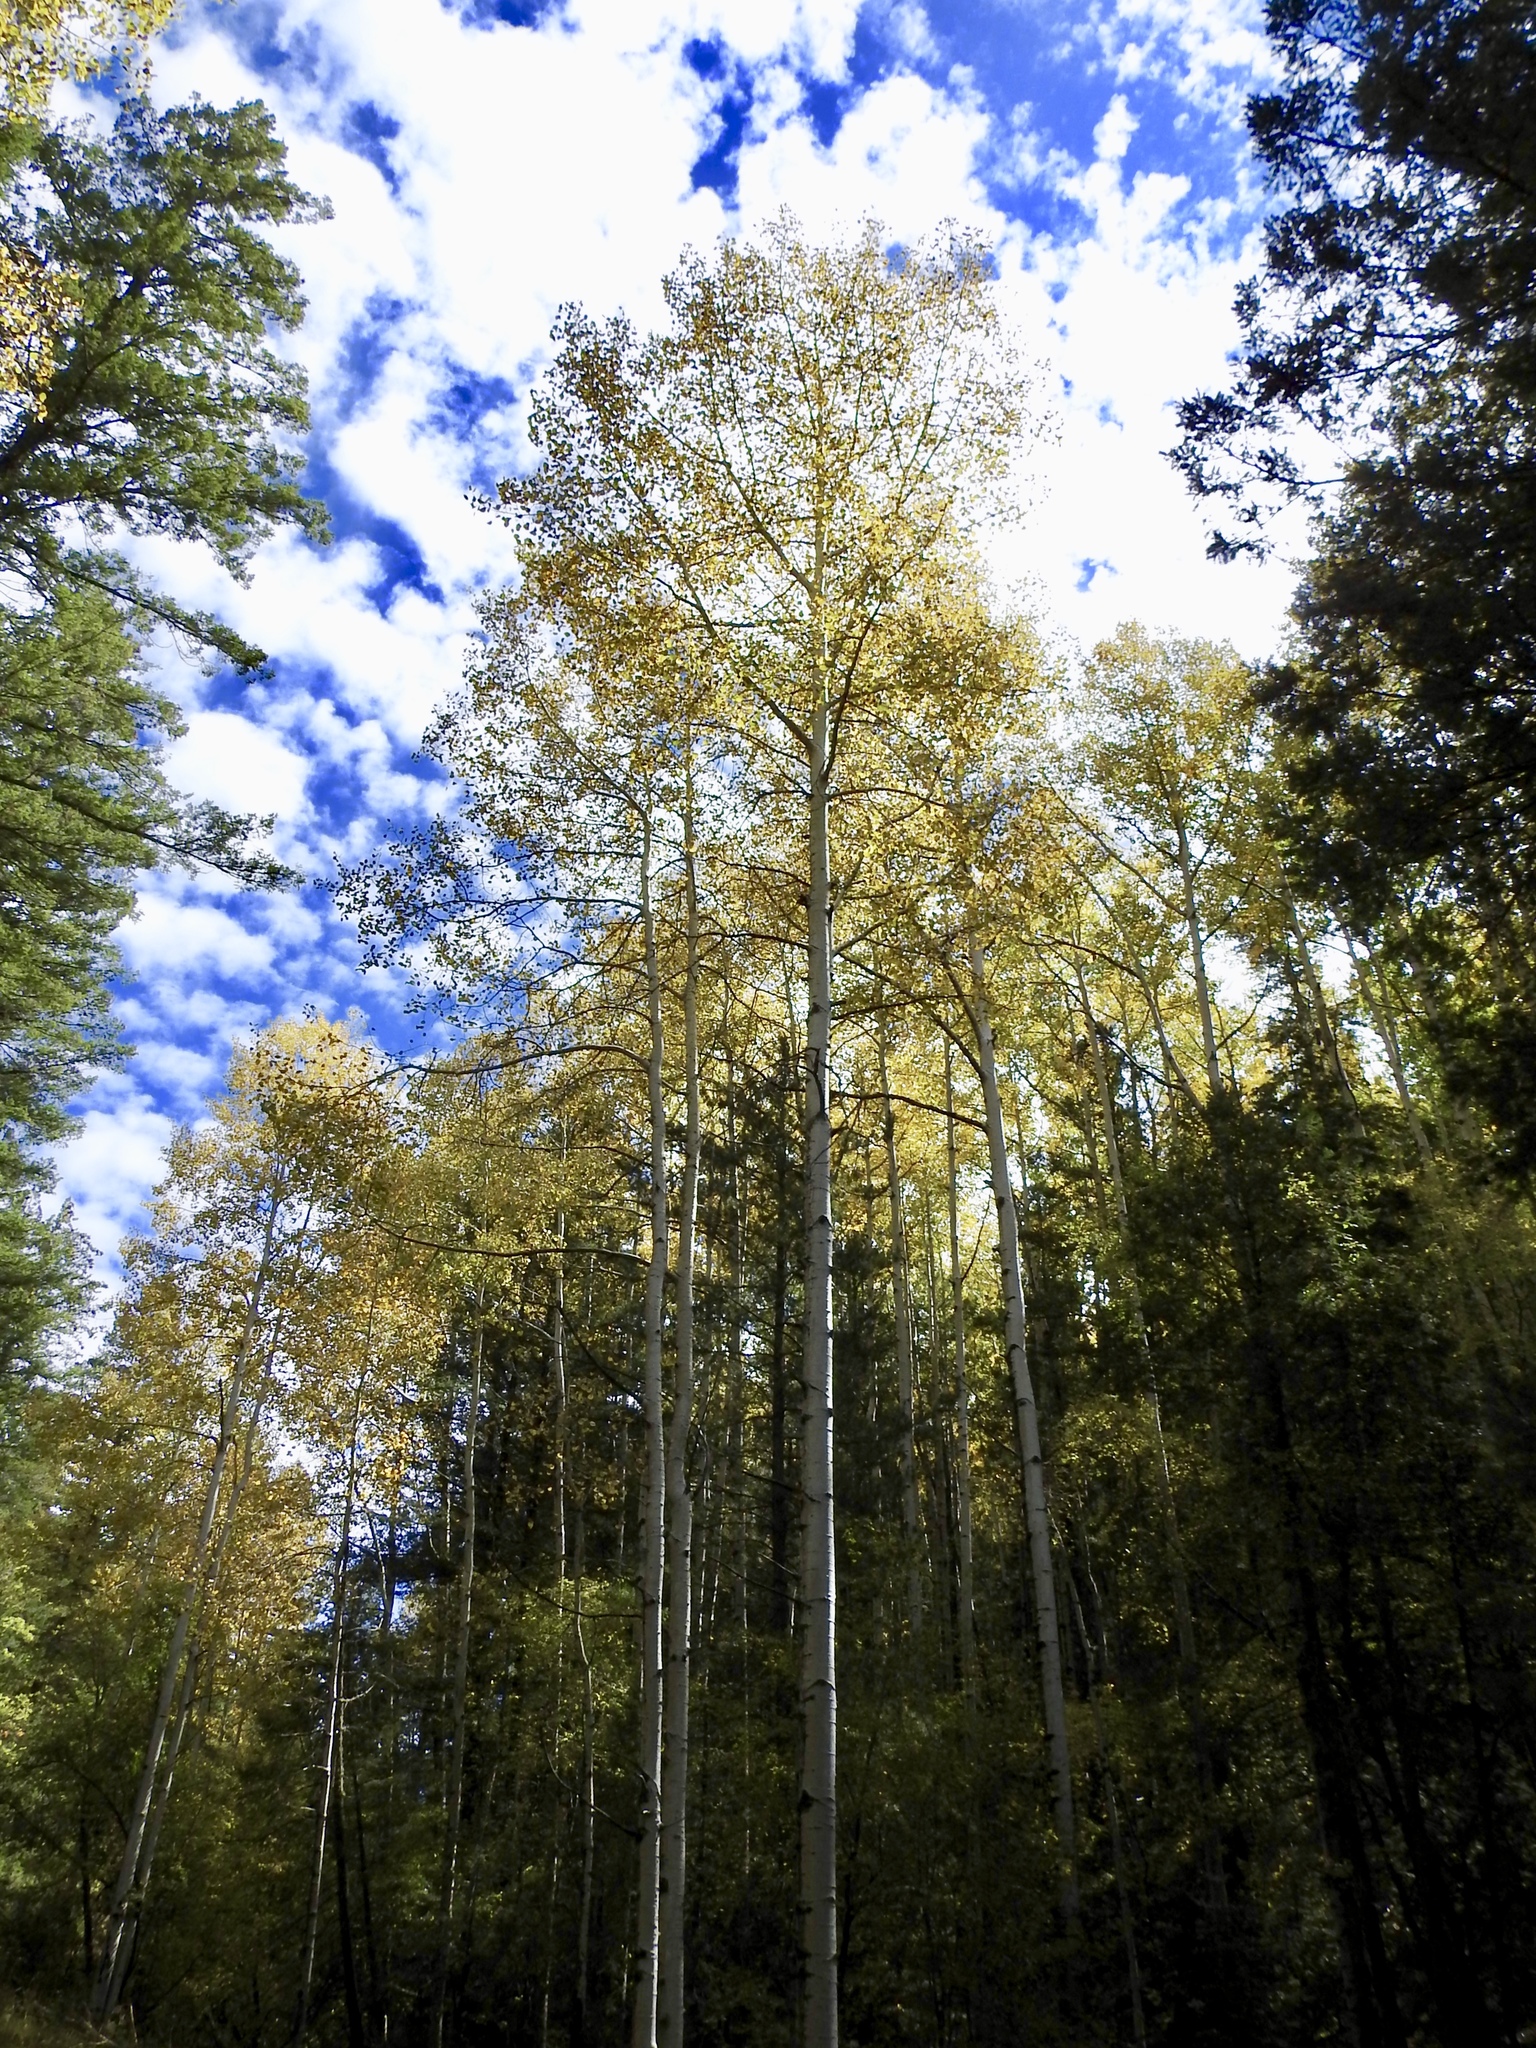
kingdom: Plantae
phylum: Tracheophyta
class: Magnoliopsida
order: Malpighiales
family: Salicaceae
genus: Populus
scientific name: Populus tremuloides
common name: Quaking aspen
